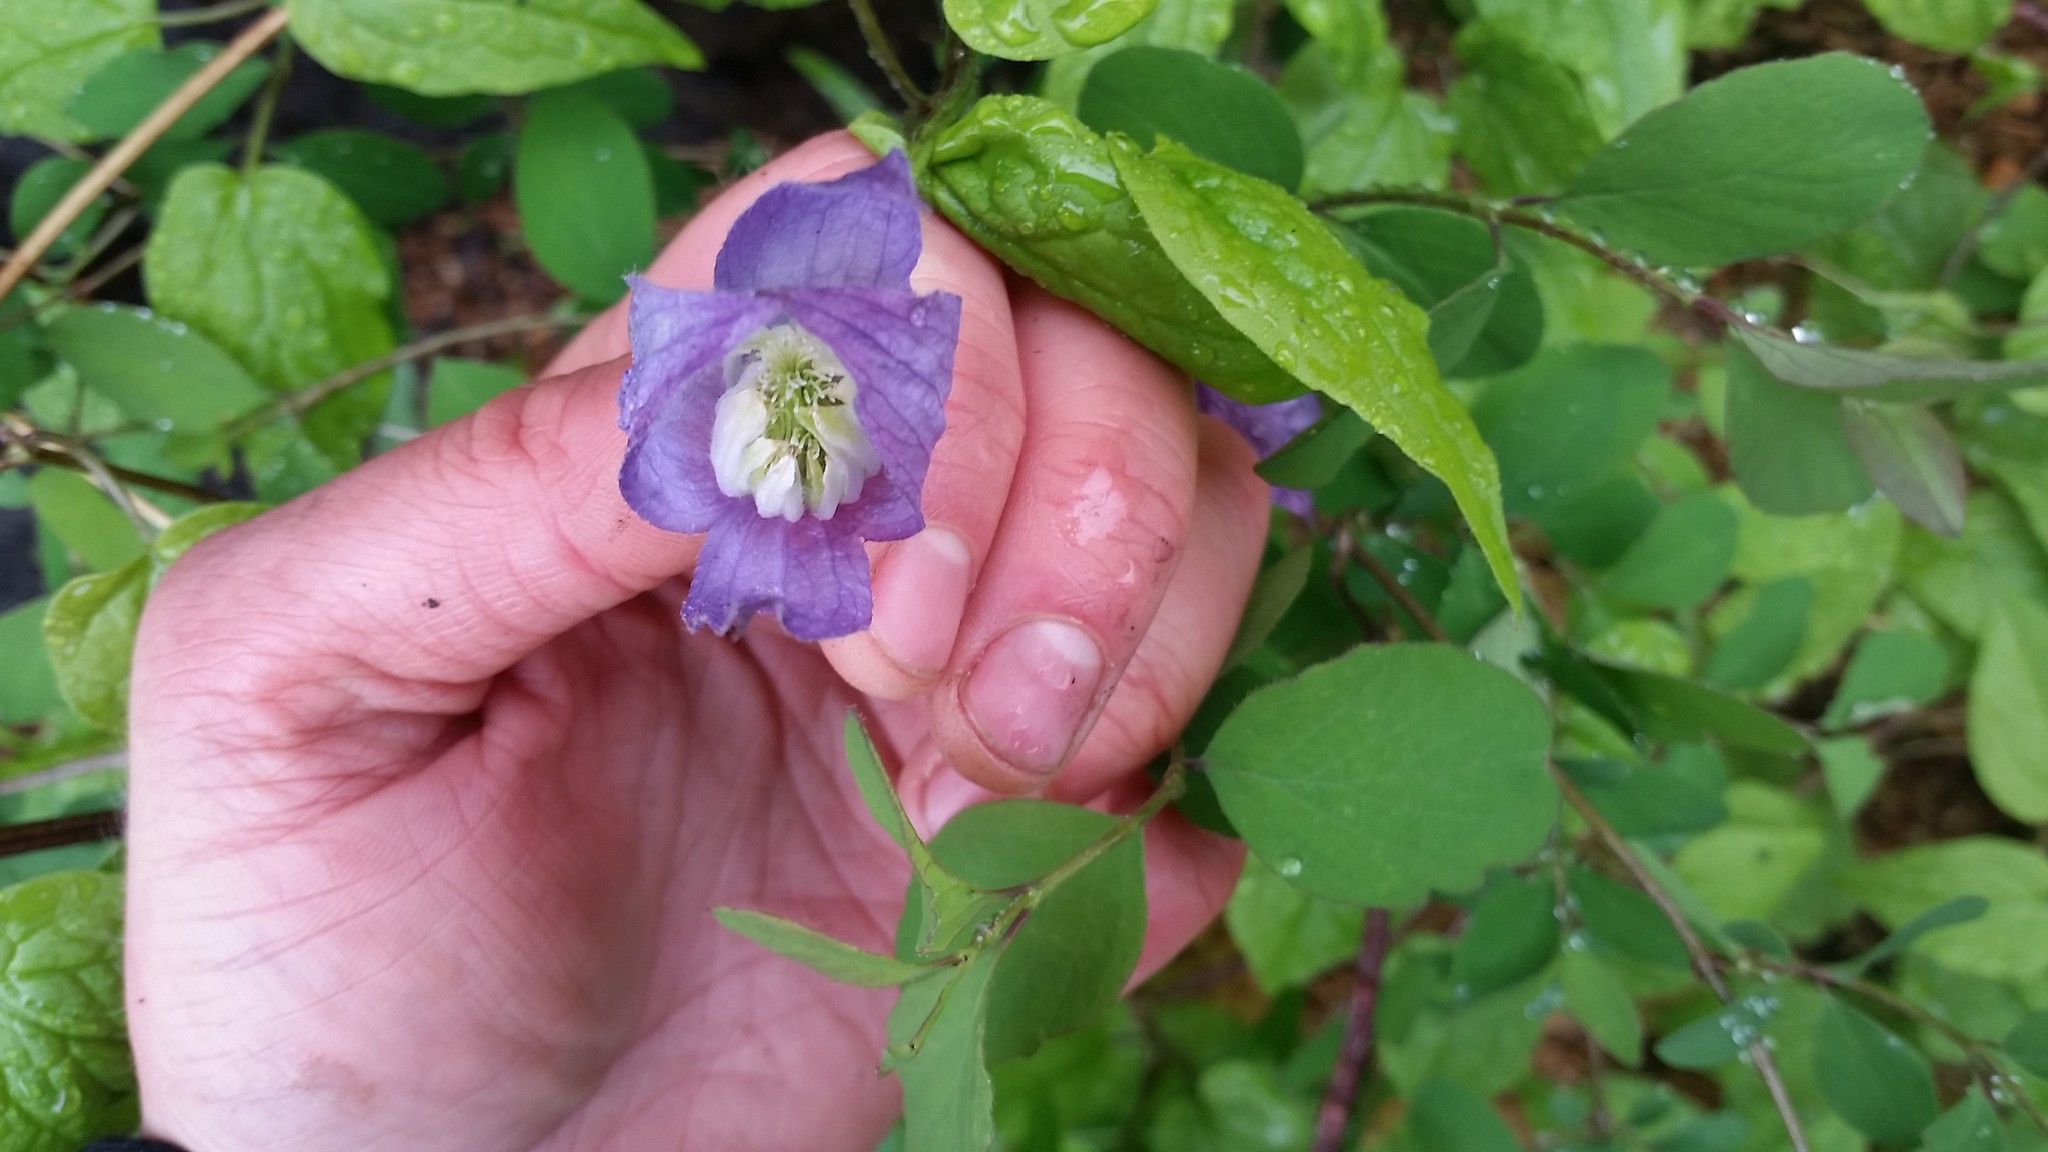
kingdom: Plantae
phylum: Tracheophyta
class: Magnoliopsida
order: Ranunculales
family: Ranunculaceae
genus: Clematis
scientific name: Clematis occidentalis
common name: Purple clematis
